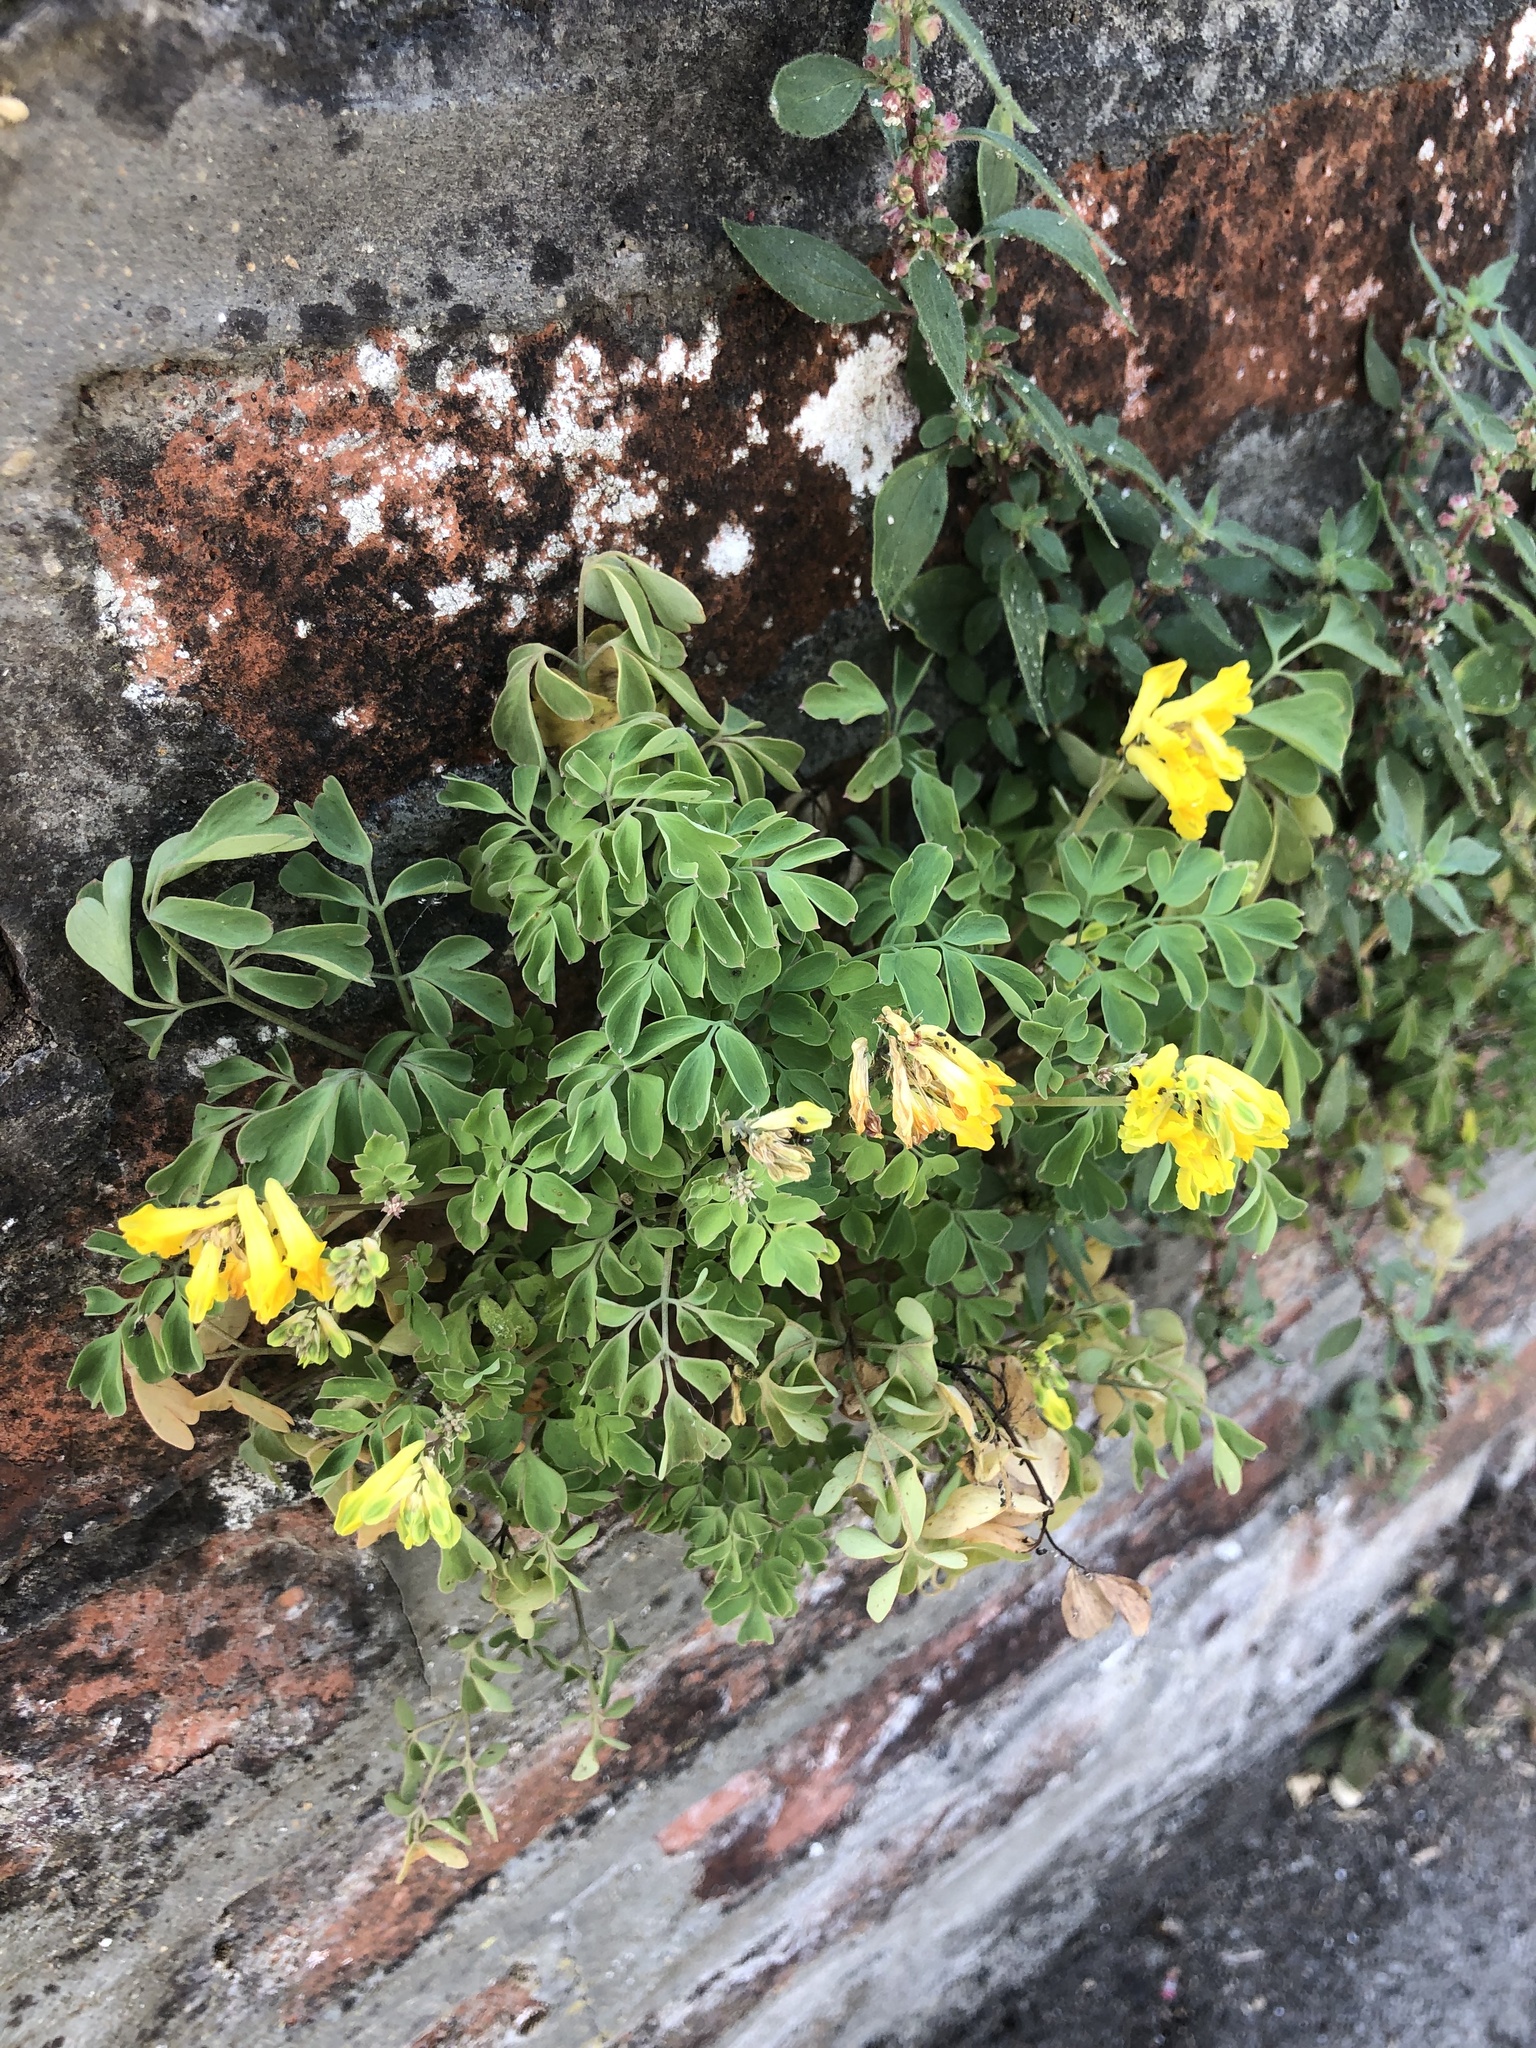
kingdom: Plantae
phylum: Tracheophyta
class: Magnoliopsida
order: Ranunculales
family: Papaveraceae
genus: Pseudofumaria
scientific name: Pseudofumaria lutea
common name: Yellow corydalis
